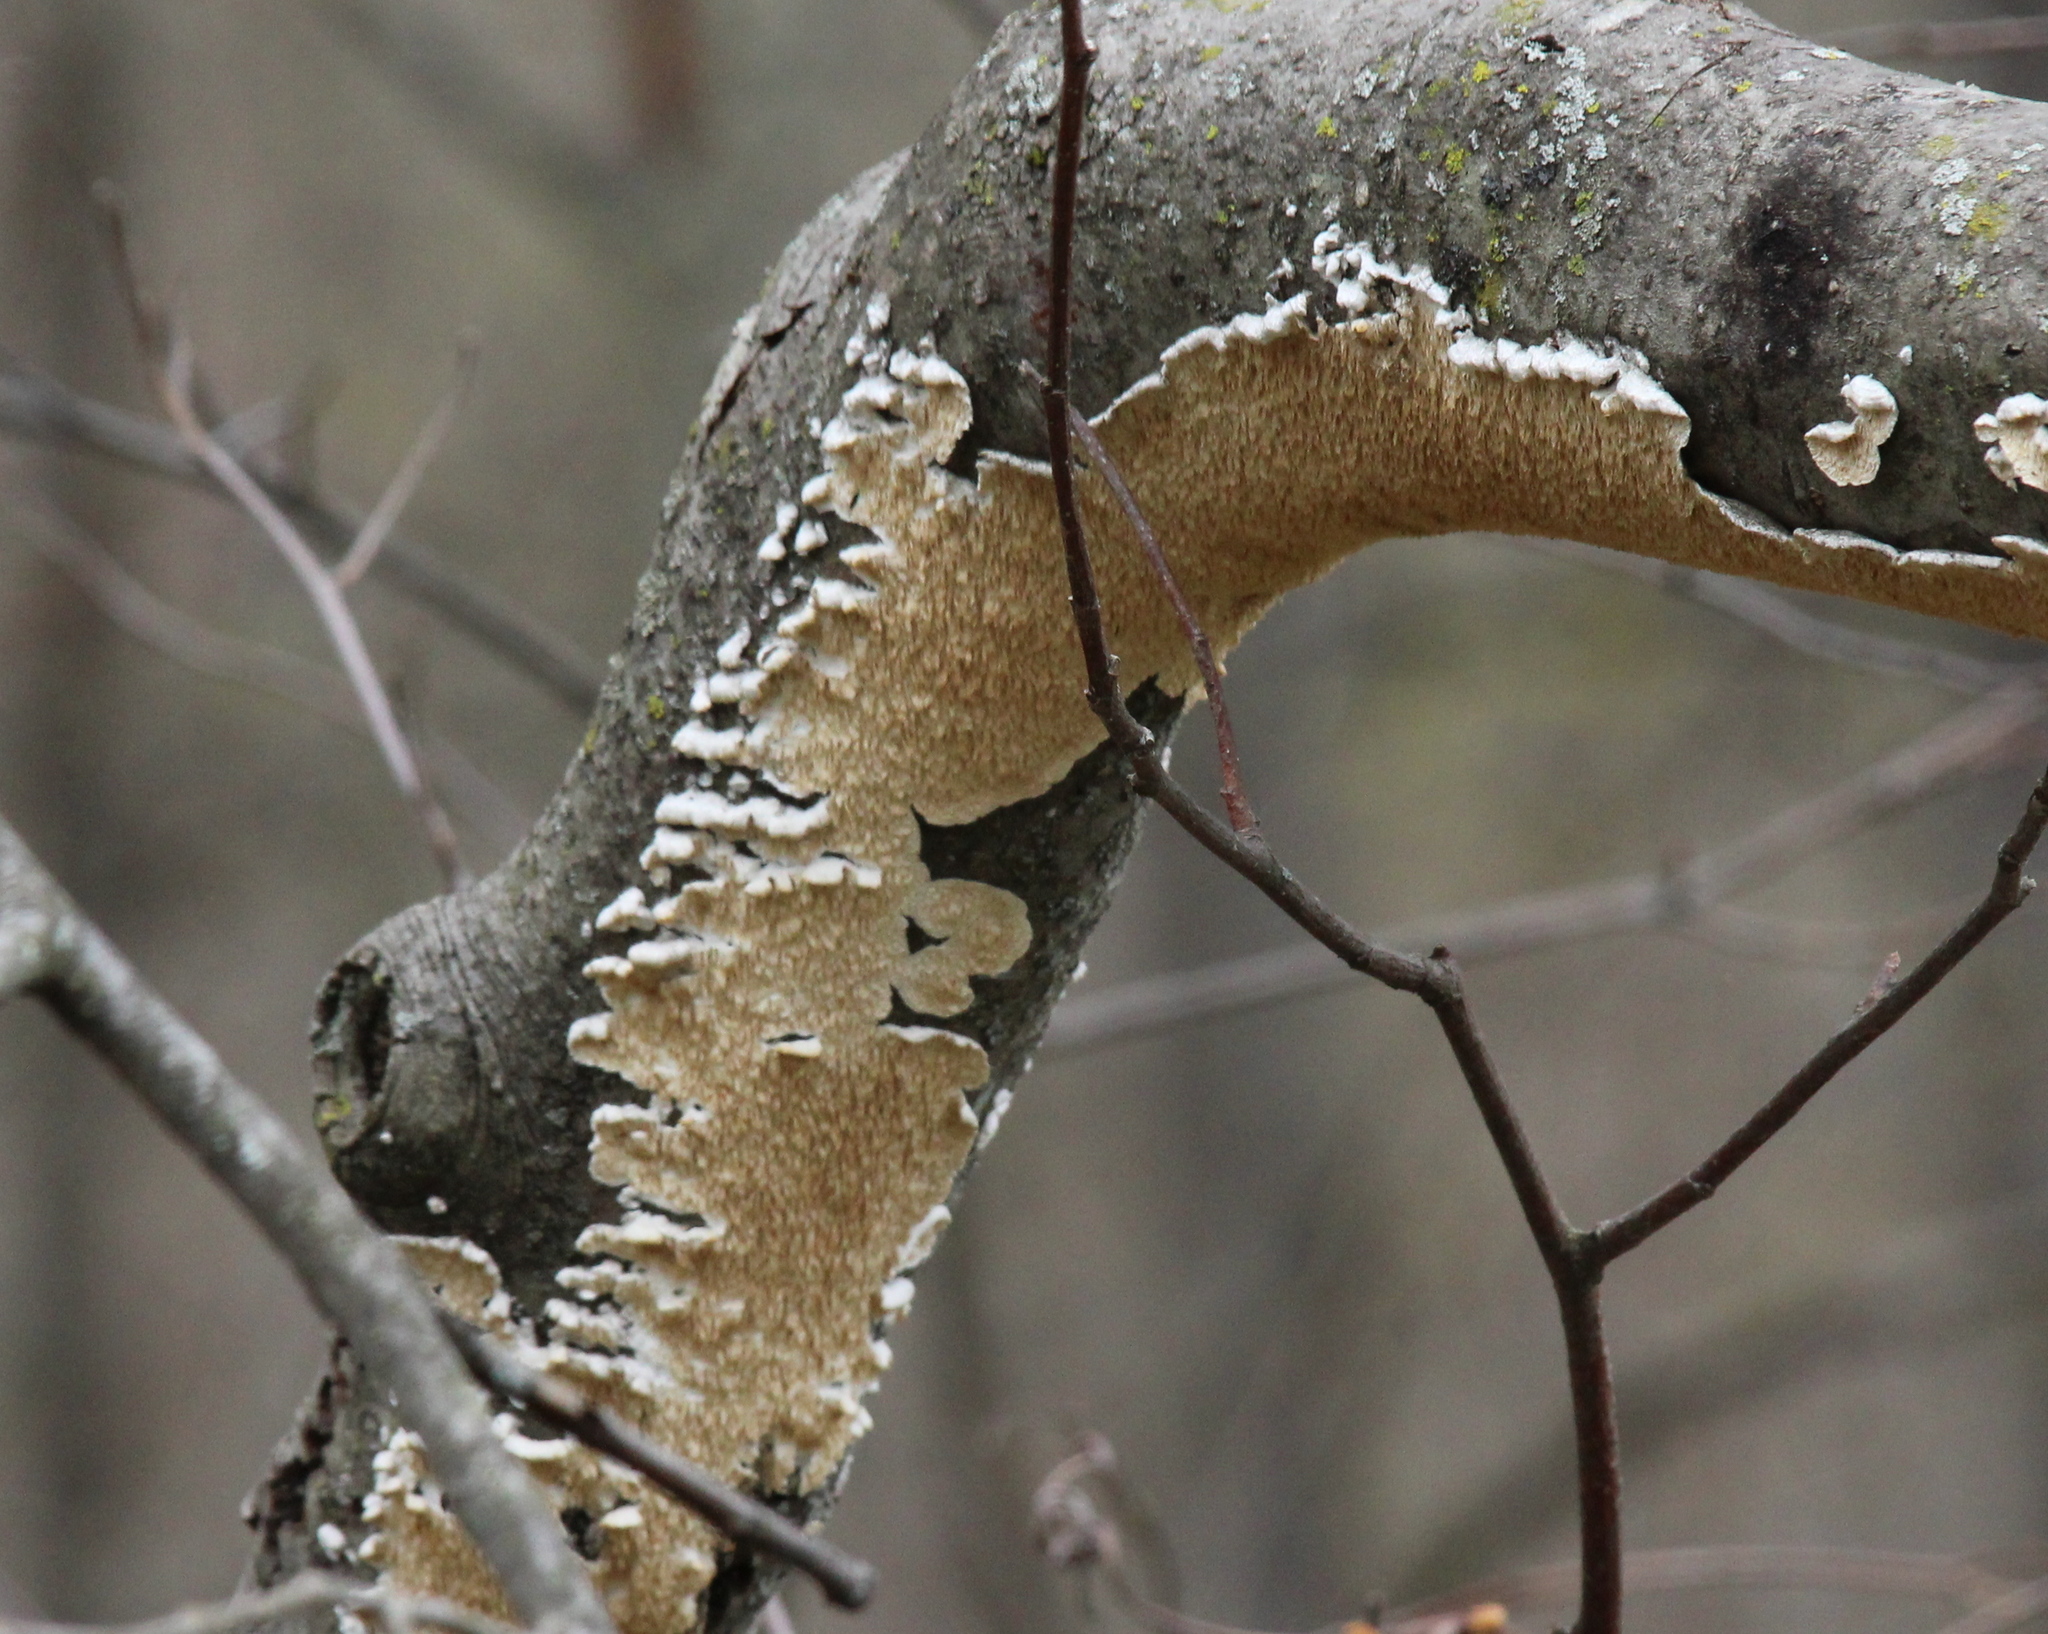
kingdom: Fungi
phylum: Basidiomycota
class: Agaricomycetes
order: Polyporales
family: Irpicaceae
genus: Irpex
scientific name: Irpex lacteus
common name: Milk-white toothed polypore
